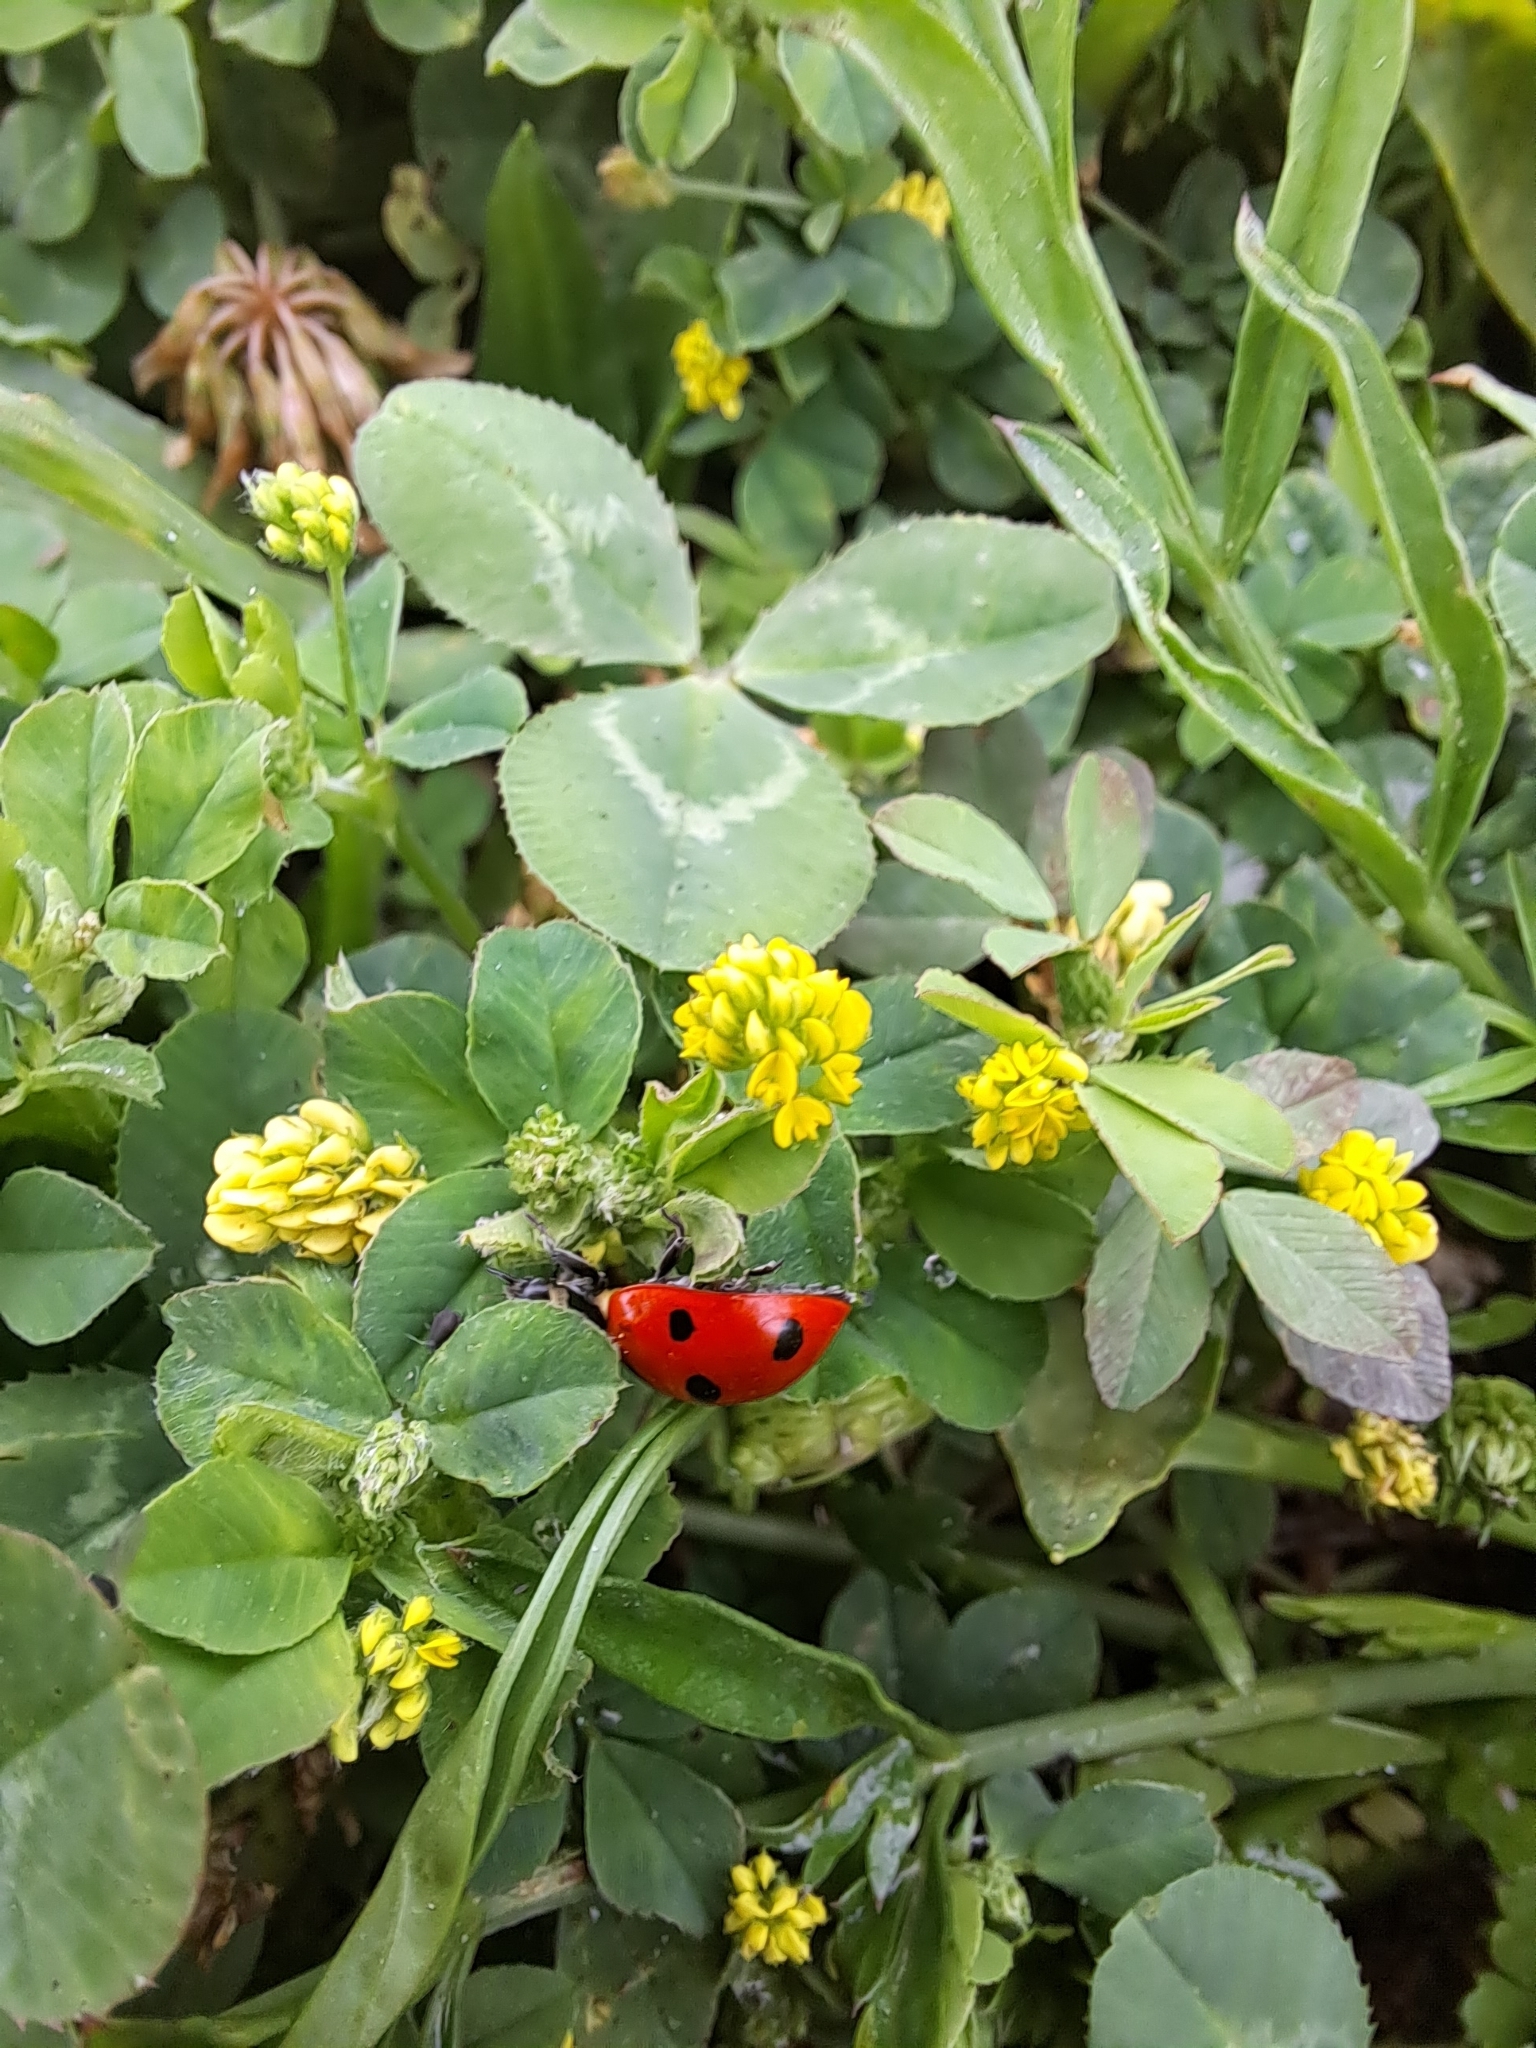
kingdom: Animalia
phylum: Arthropoda
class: Insecta
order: Coleoptera
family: Coccinellidae
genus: Coccinella
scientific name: Coccinella septempunctata
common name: Sevenspotted lady beetle
